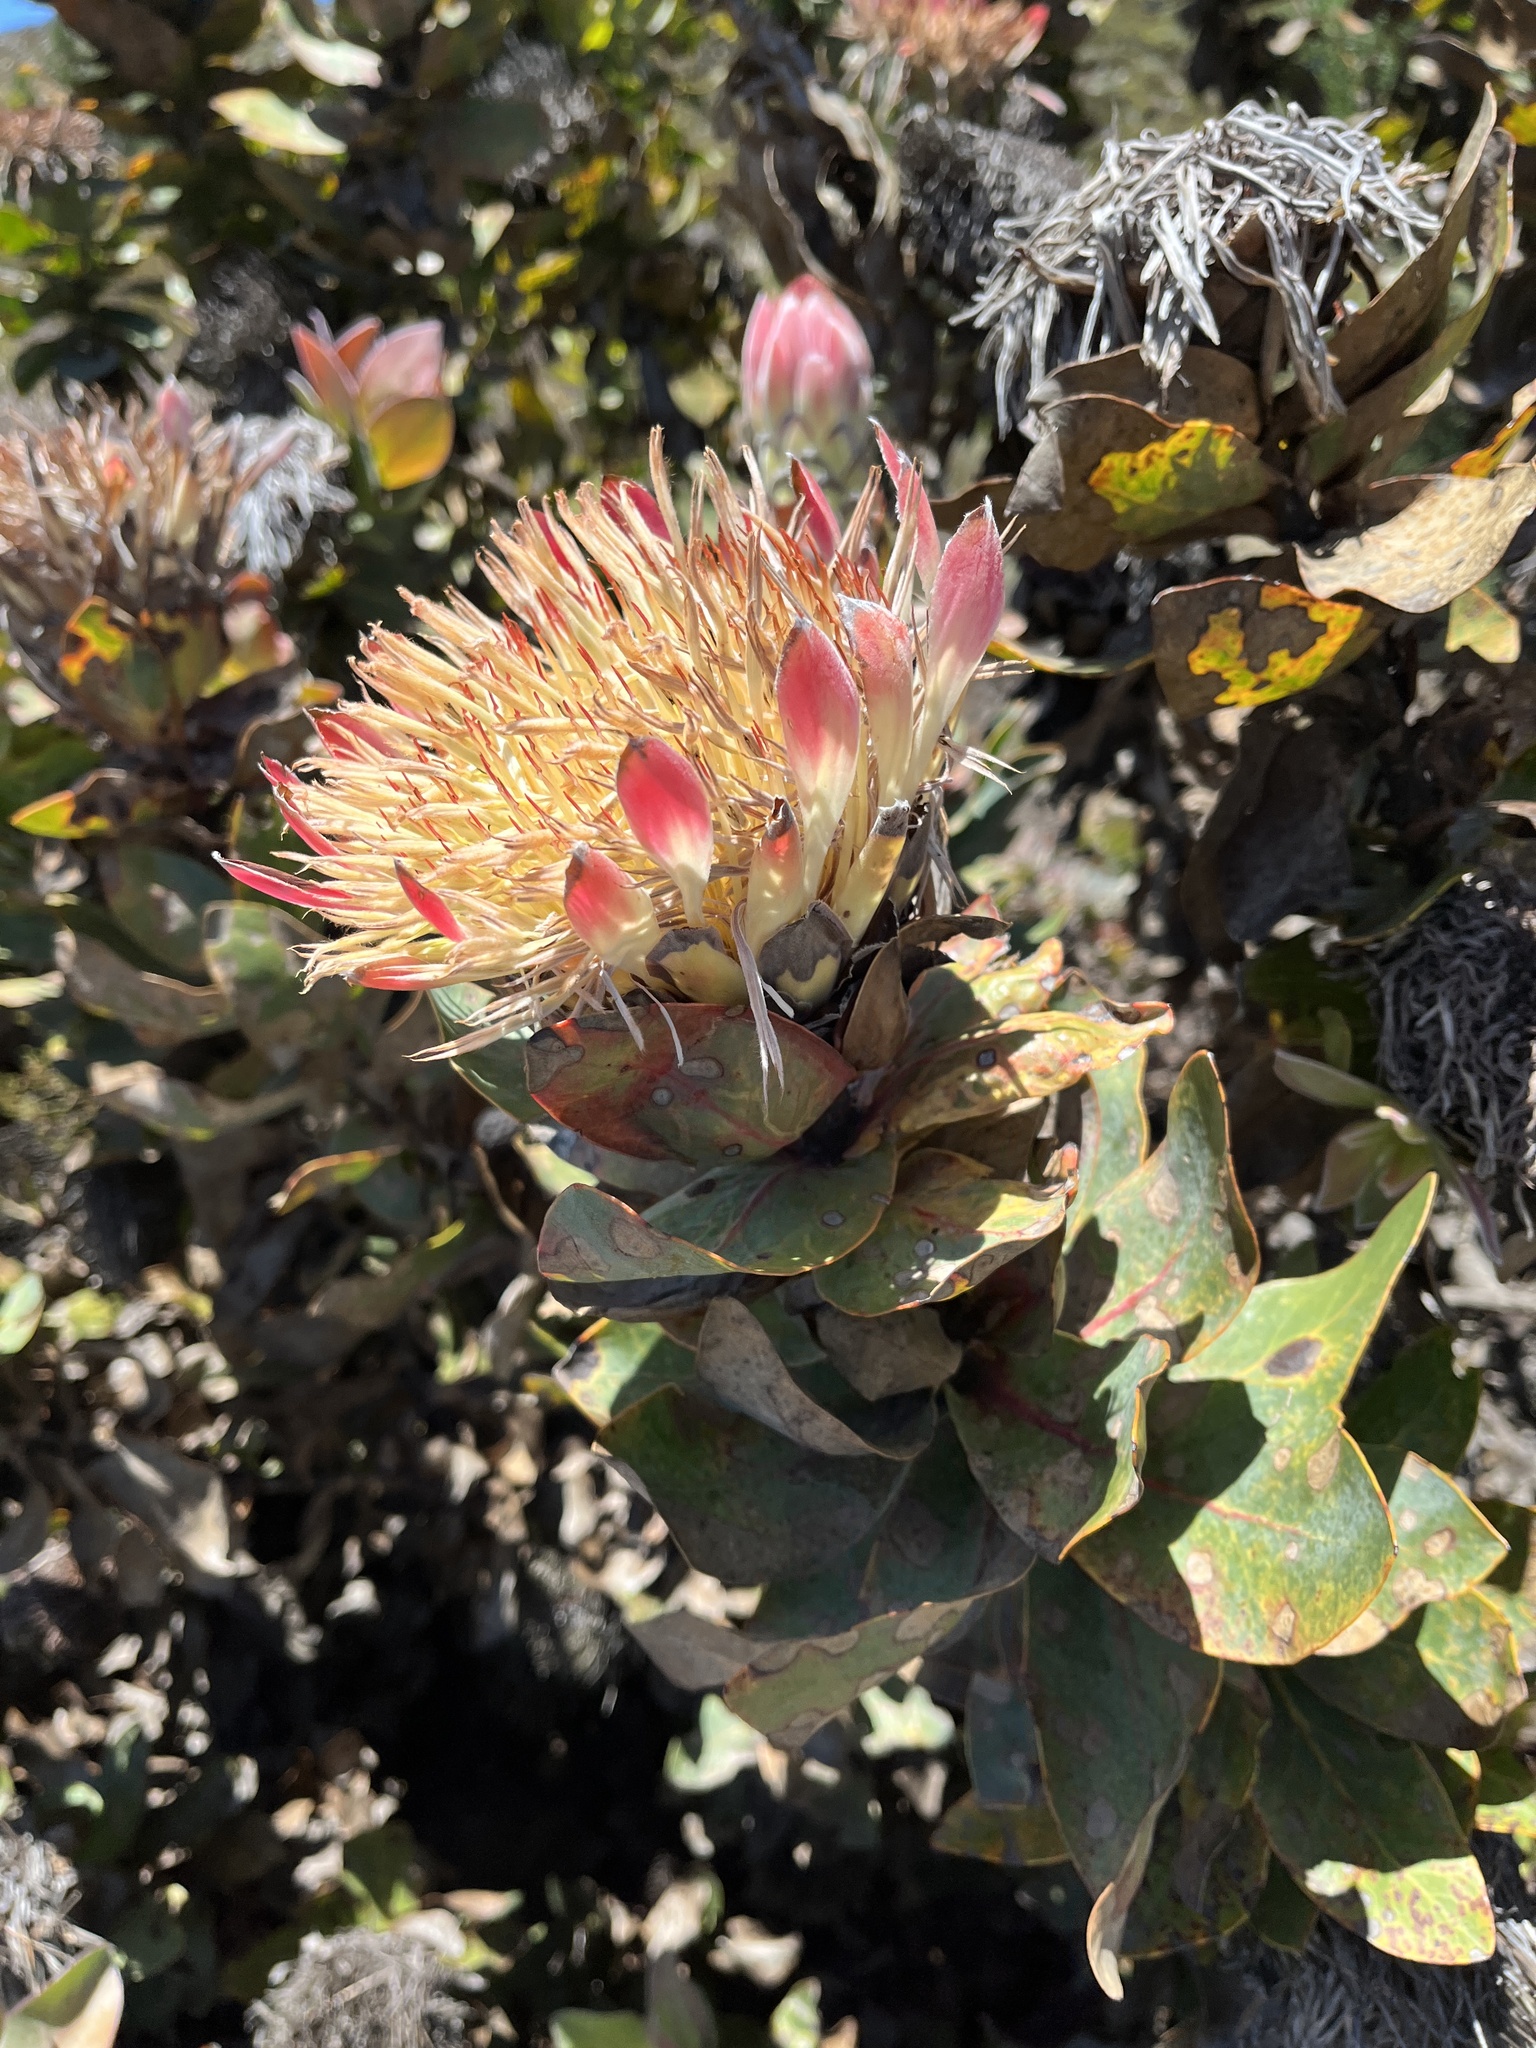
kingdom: Plantae
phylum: Tracheophyta
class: Magnoliopsida
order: Proteales
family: Proteaceae
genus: Protea
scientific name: Protea eximia
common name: Broad-leaved sugarbush
